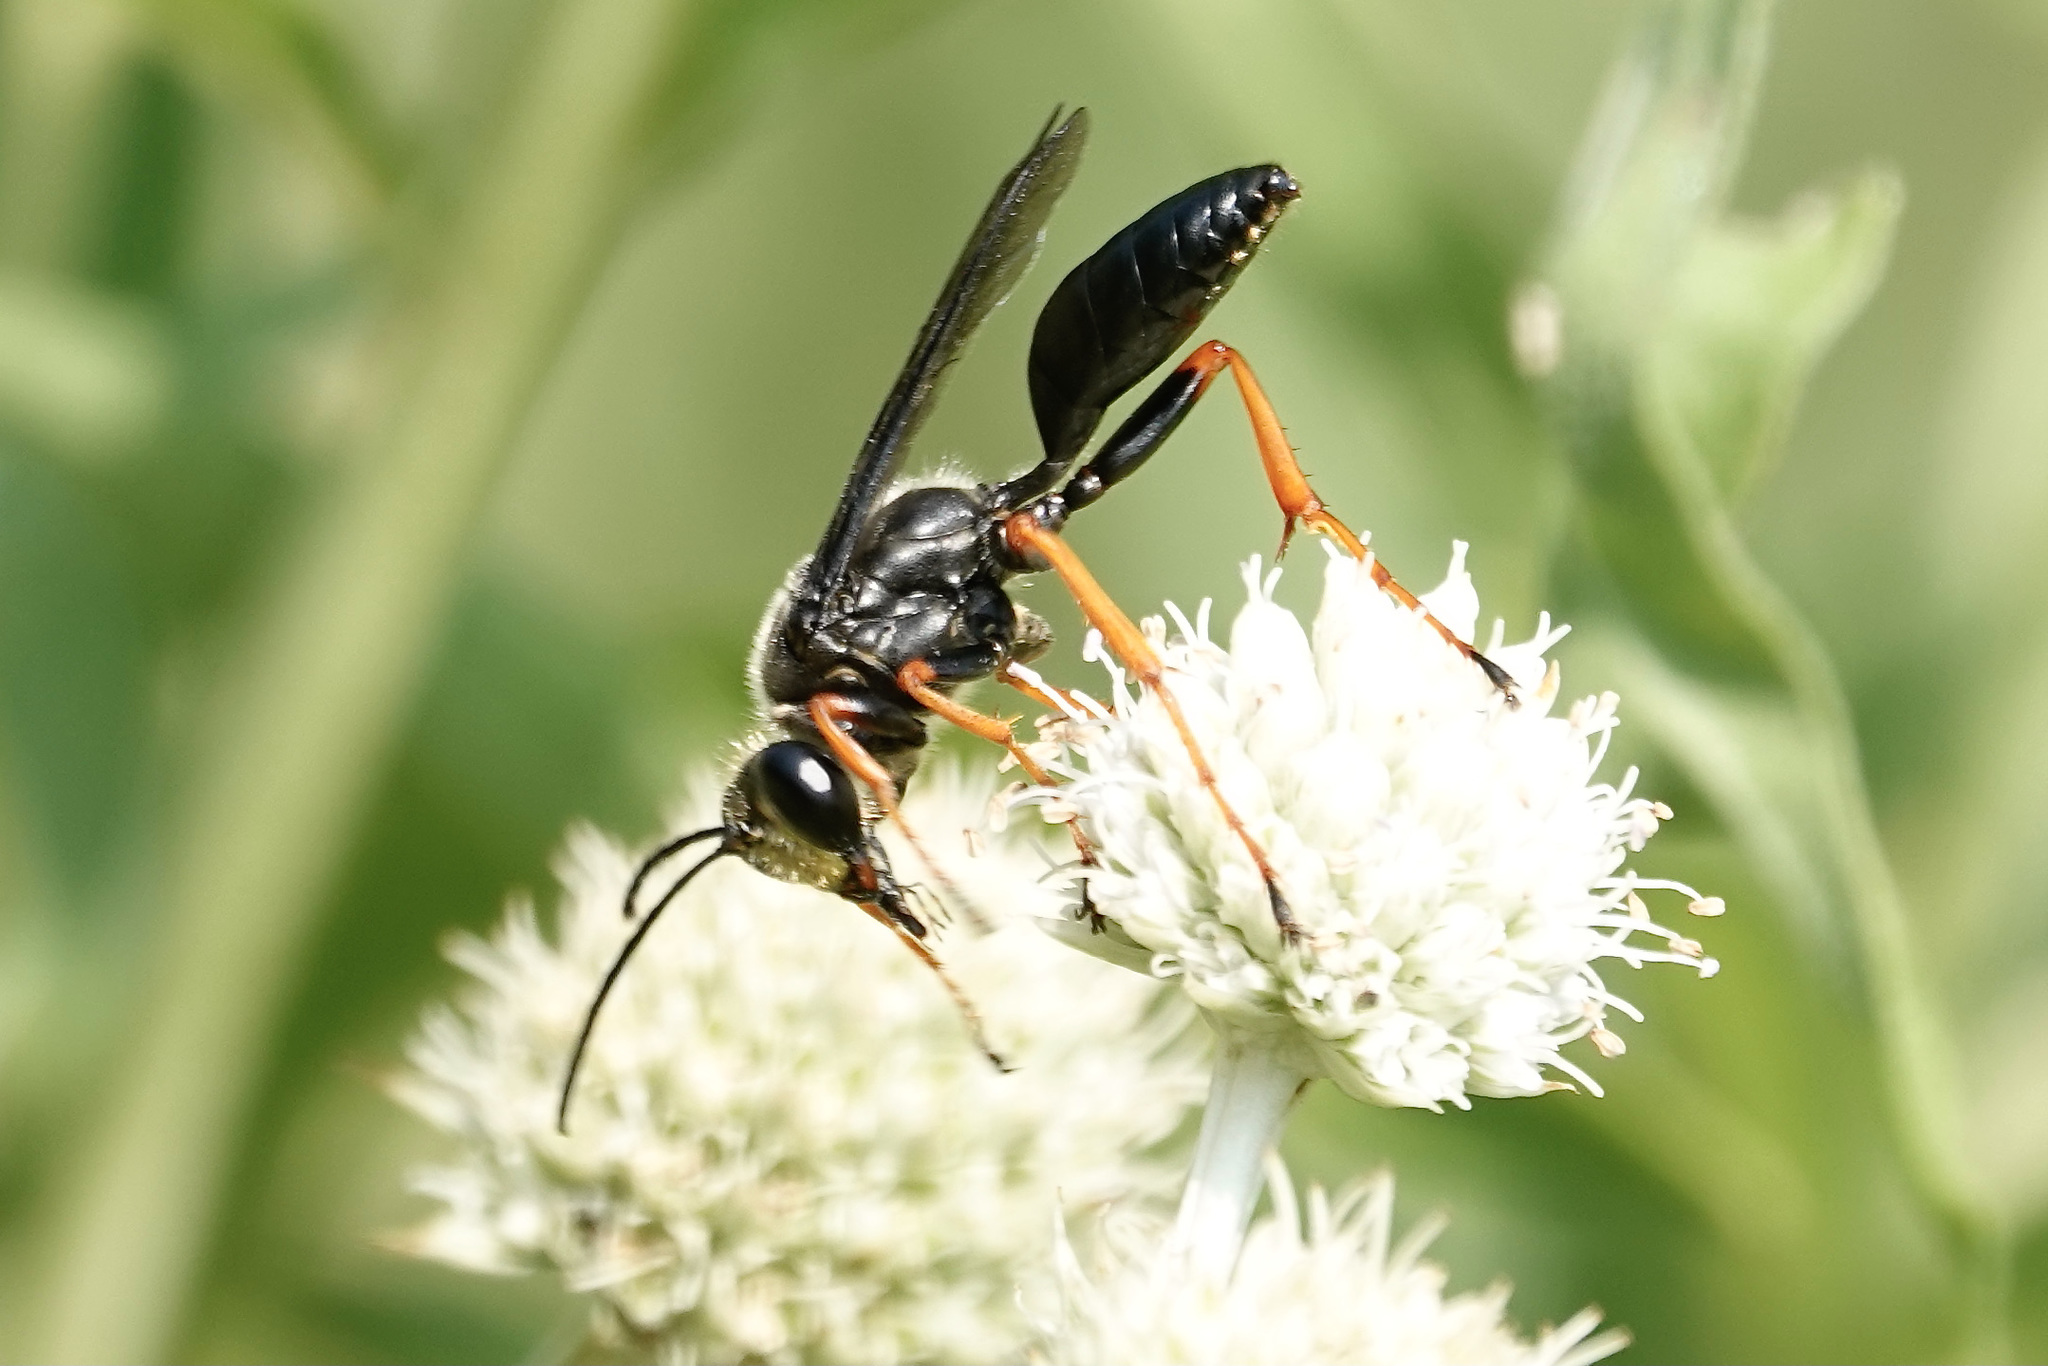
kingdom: Animalia
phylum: Arthropoda
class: Insecta
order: Hymenoptera
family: Sphecidae
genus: Sphex
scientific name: Sphex nudus
